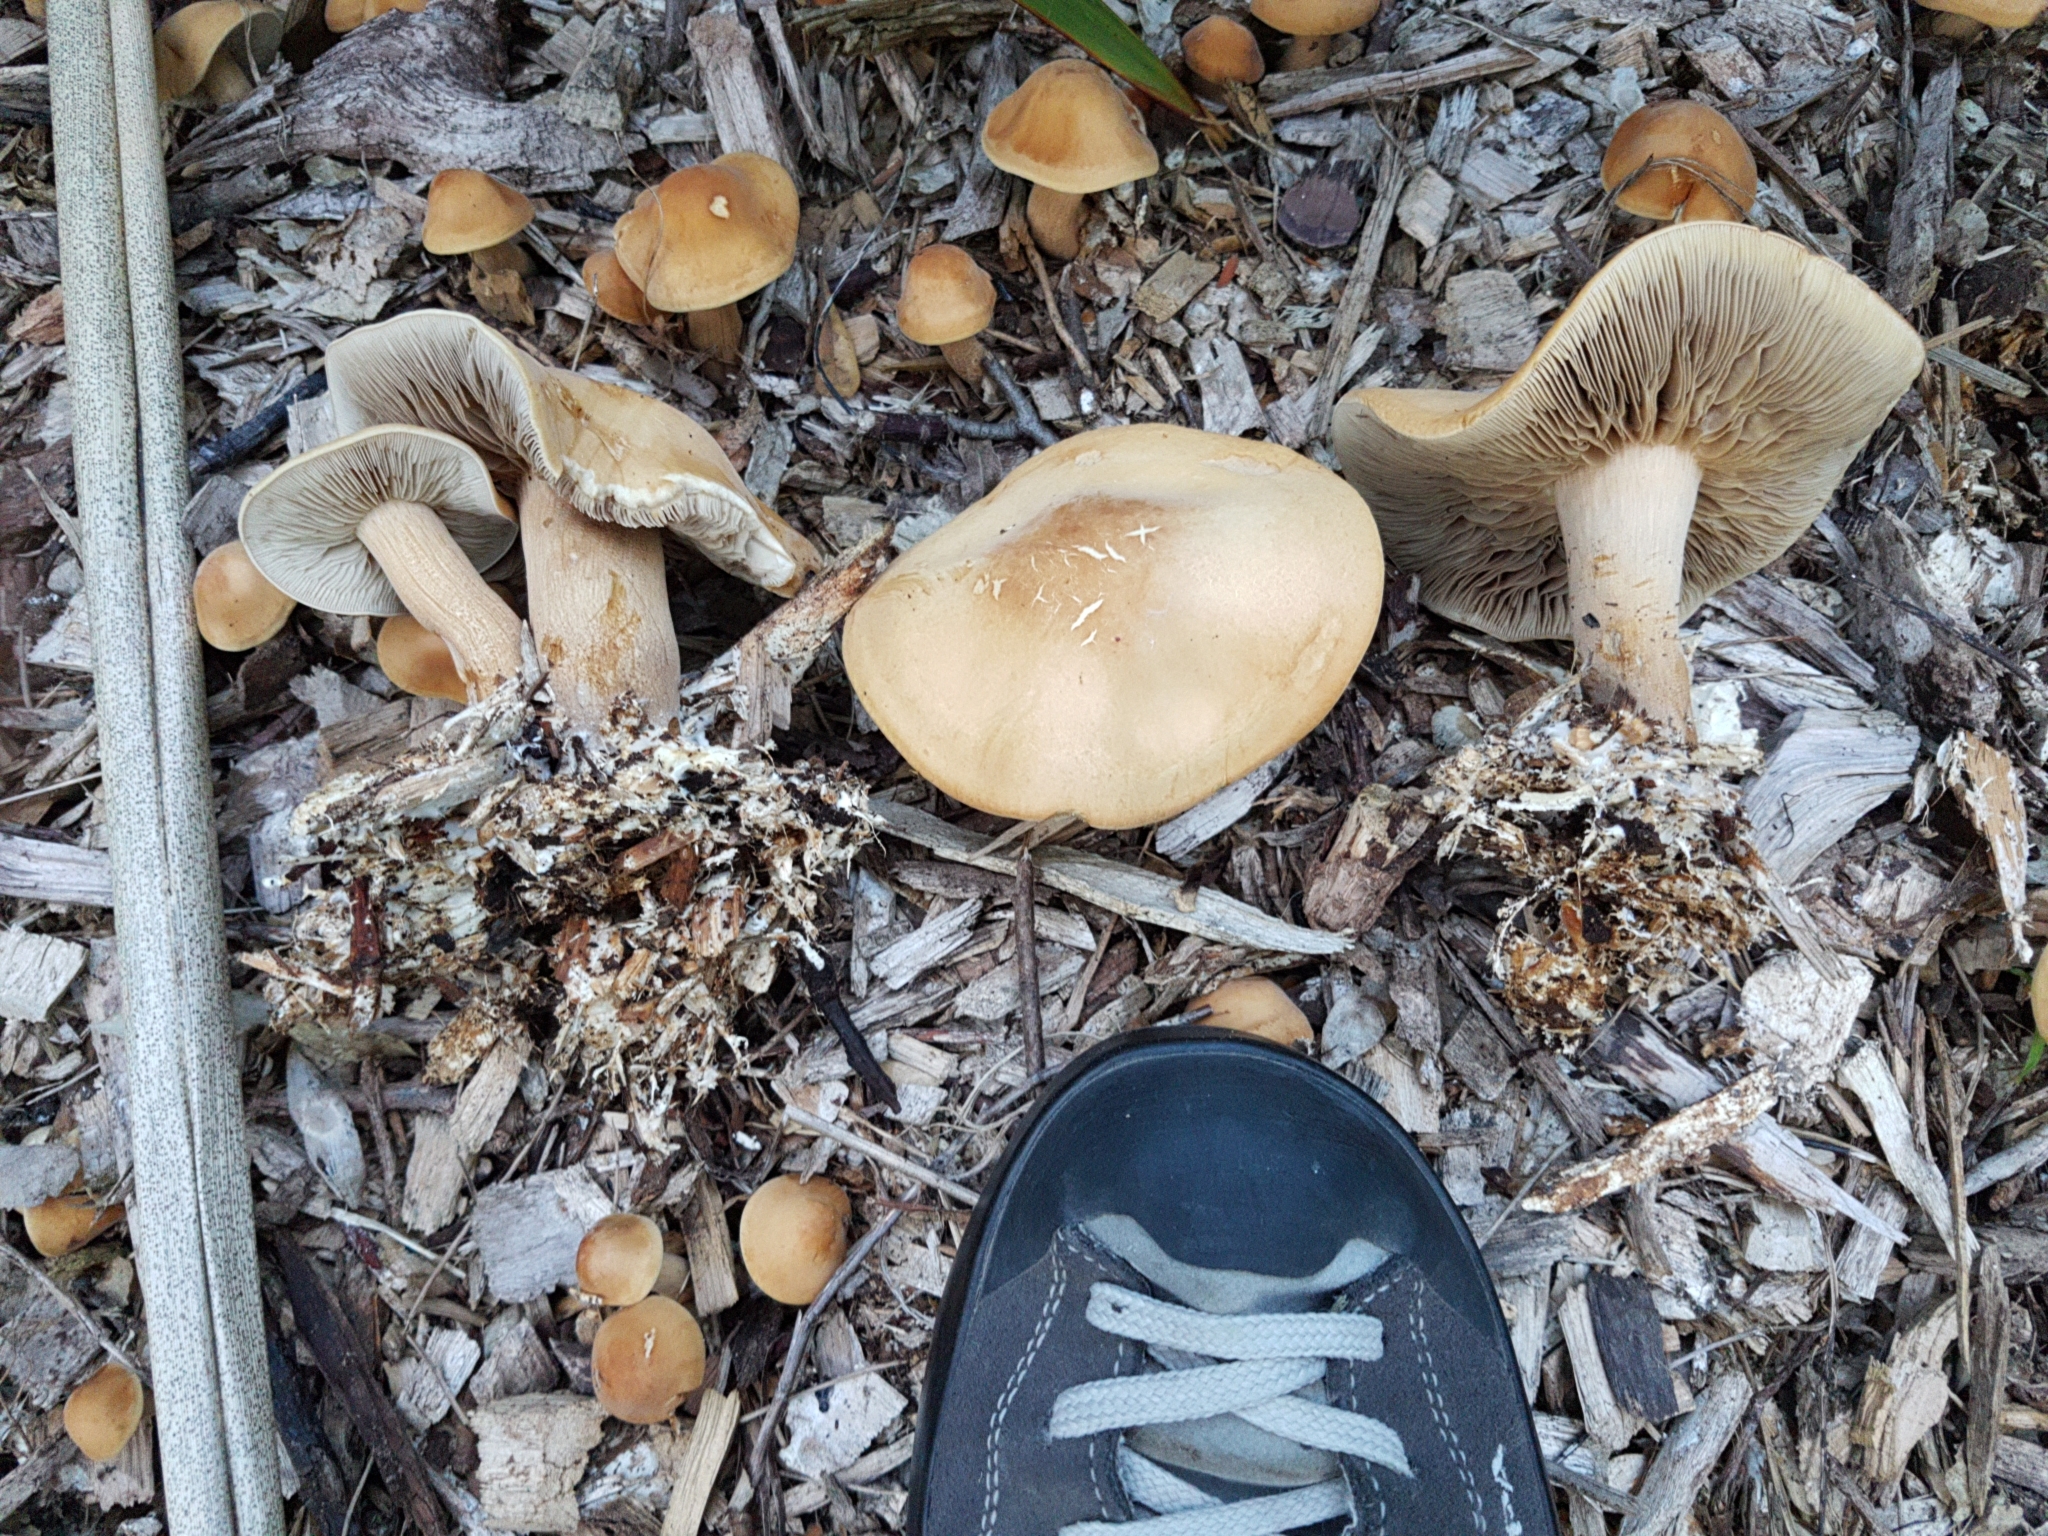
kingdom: Fungi
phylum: Basidiomycota
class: Agaricomycetes
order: Agaricales
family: Strophariaceae
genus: Agrocybe
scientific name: Agrocybe putaminum
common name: Mulch fieldcap
